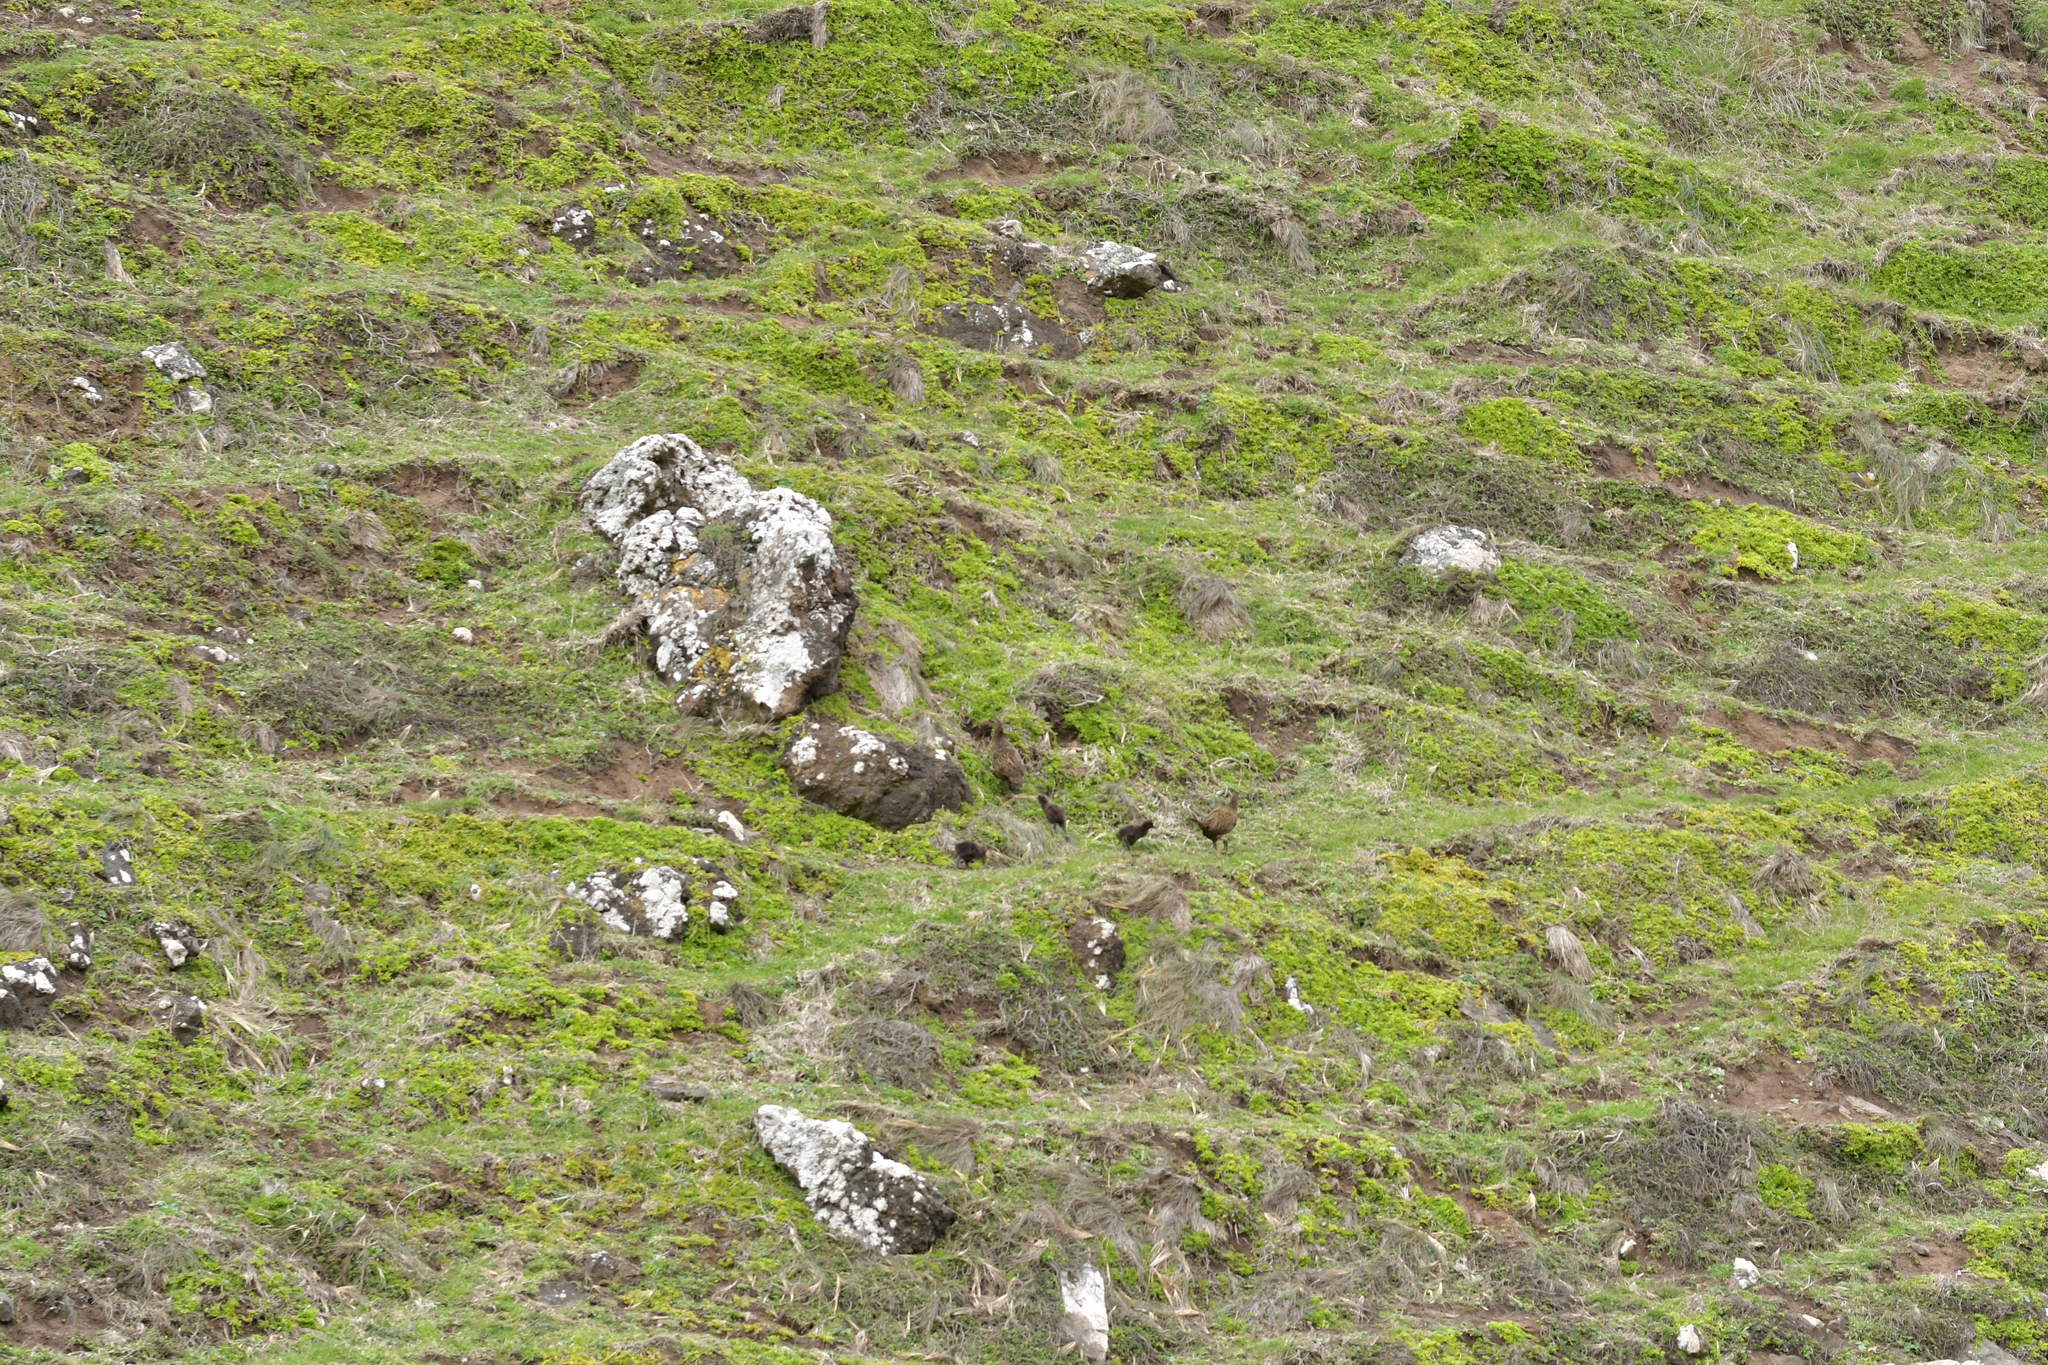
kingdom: Animalia
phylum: Chordata
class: Aves
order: Gruiformes
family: Rallidae
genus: Gallirallus
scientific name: Gallirallus australis
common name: Weka
